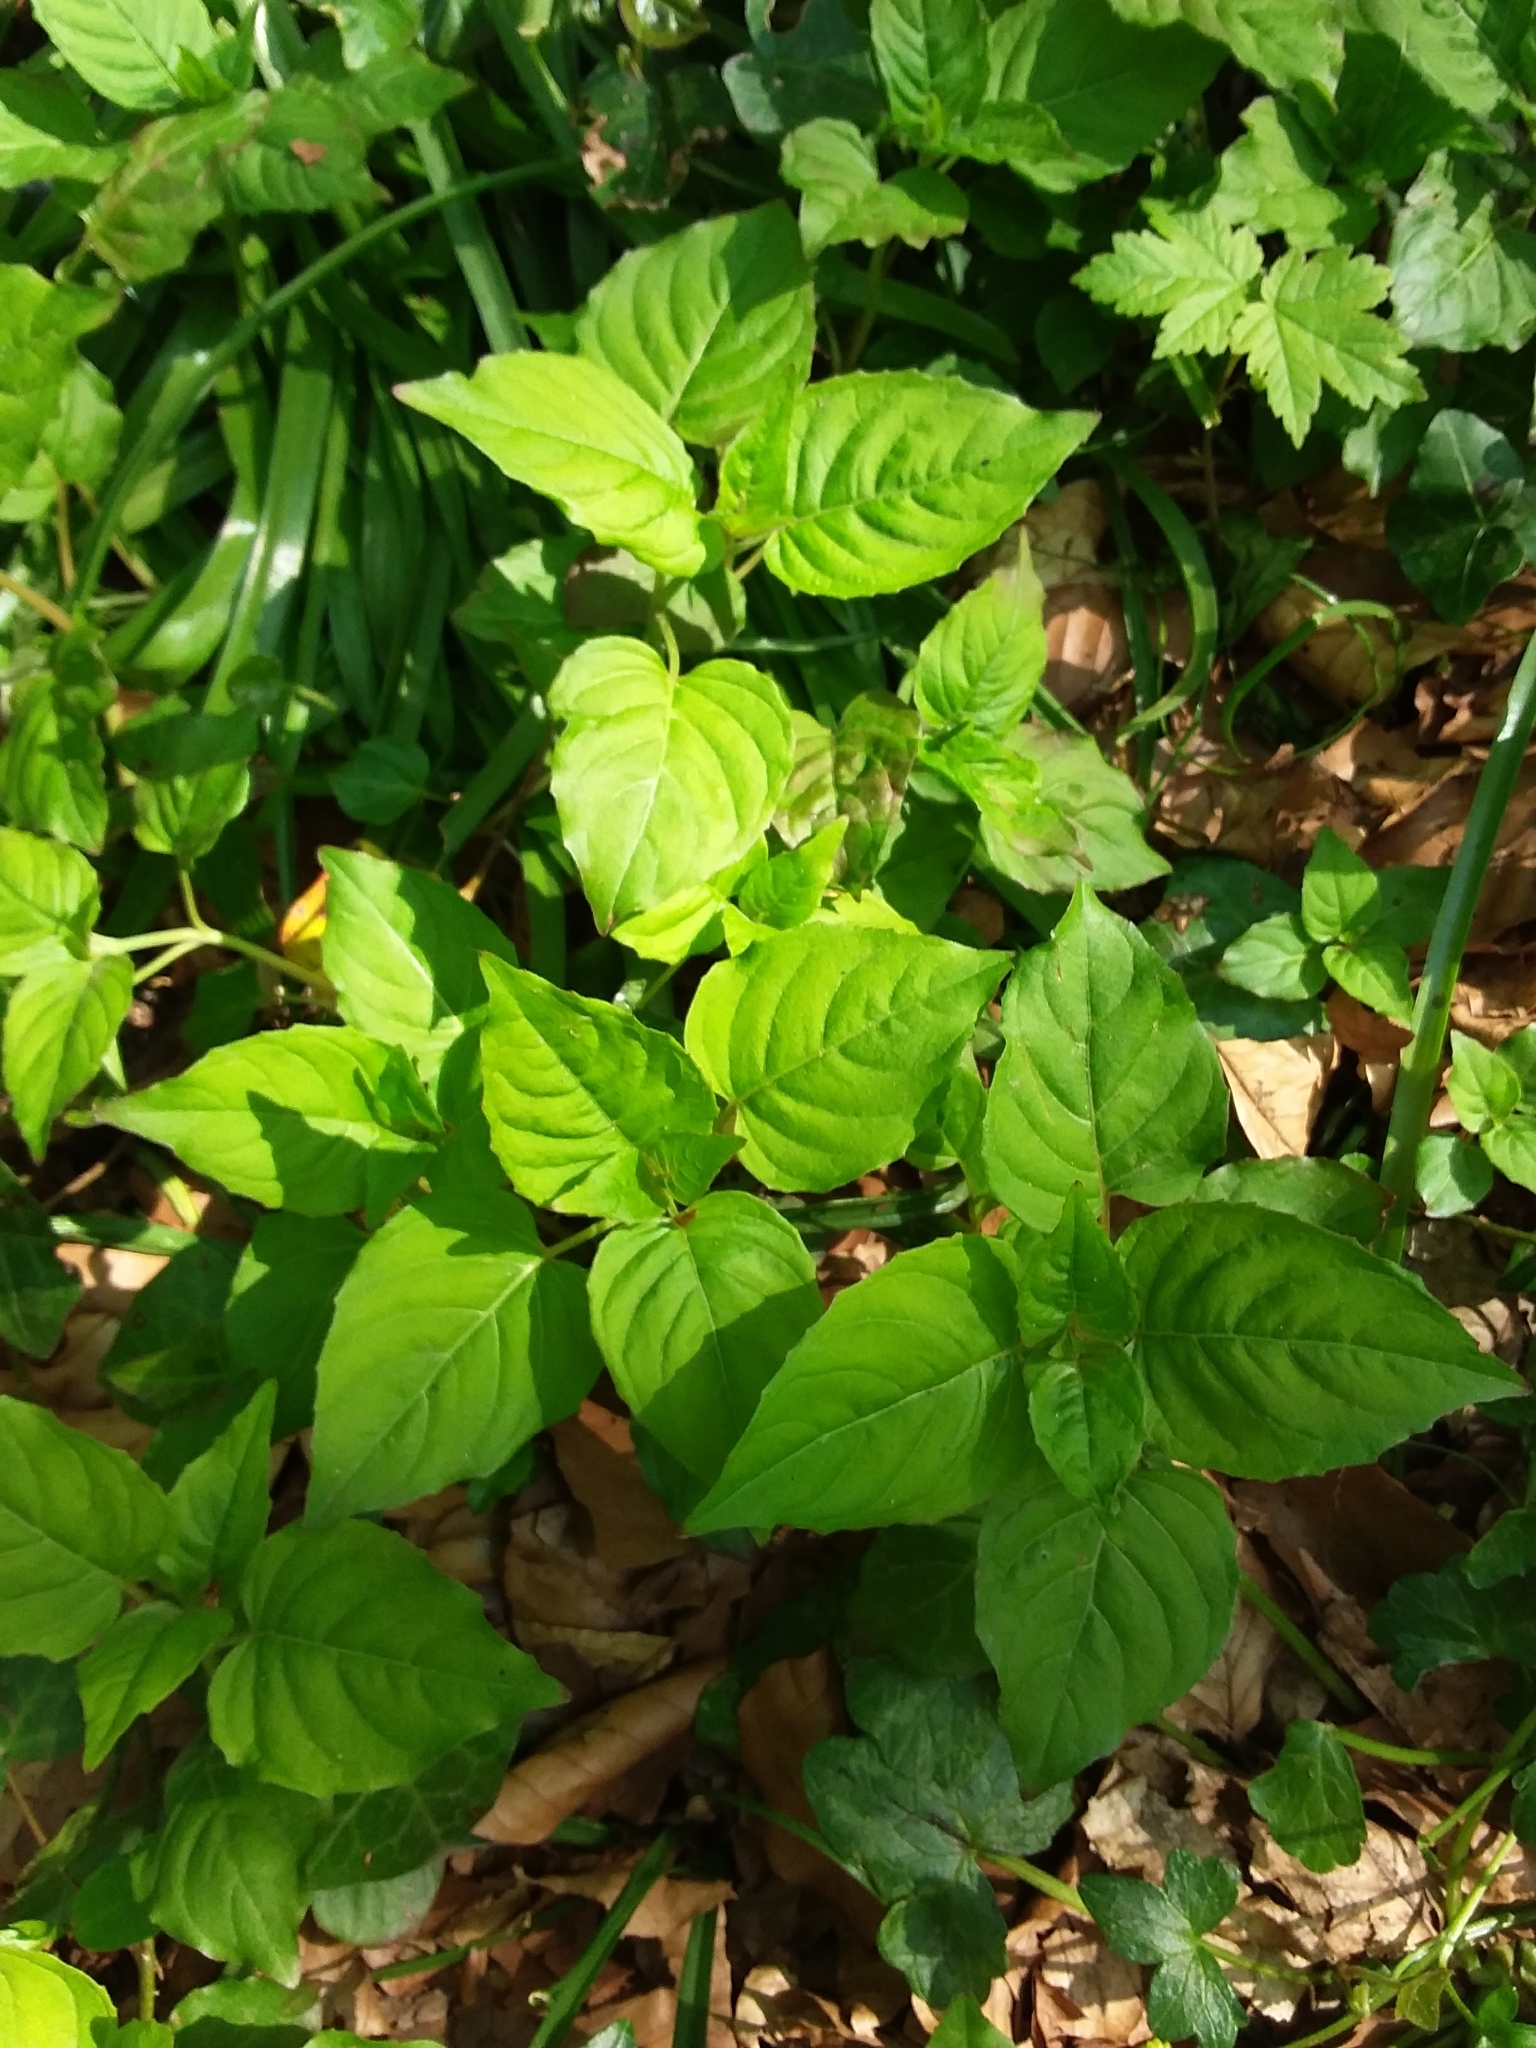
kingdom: Plantae
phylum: Tracheophyta
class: Magnoliopsida
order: Myrtales
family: Onagraceae
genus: Circaea
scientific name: Circaea lutetiana
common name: Enchanter's-nightshade
